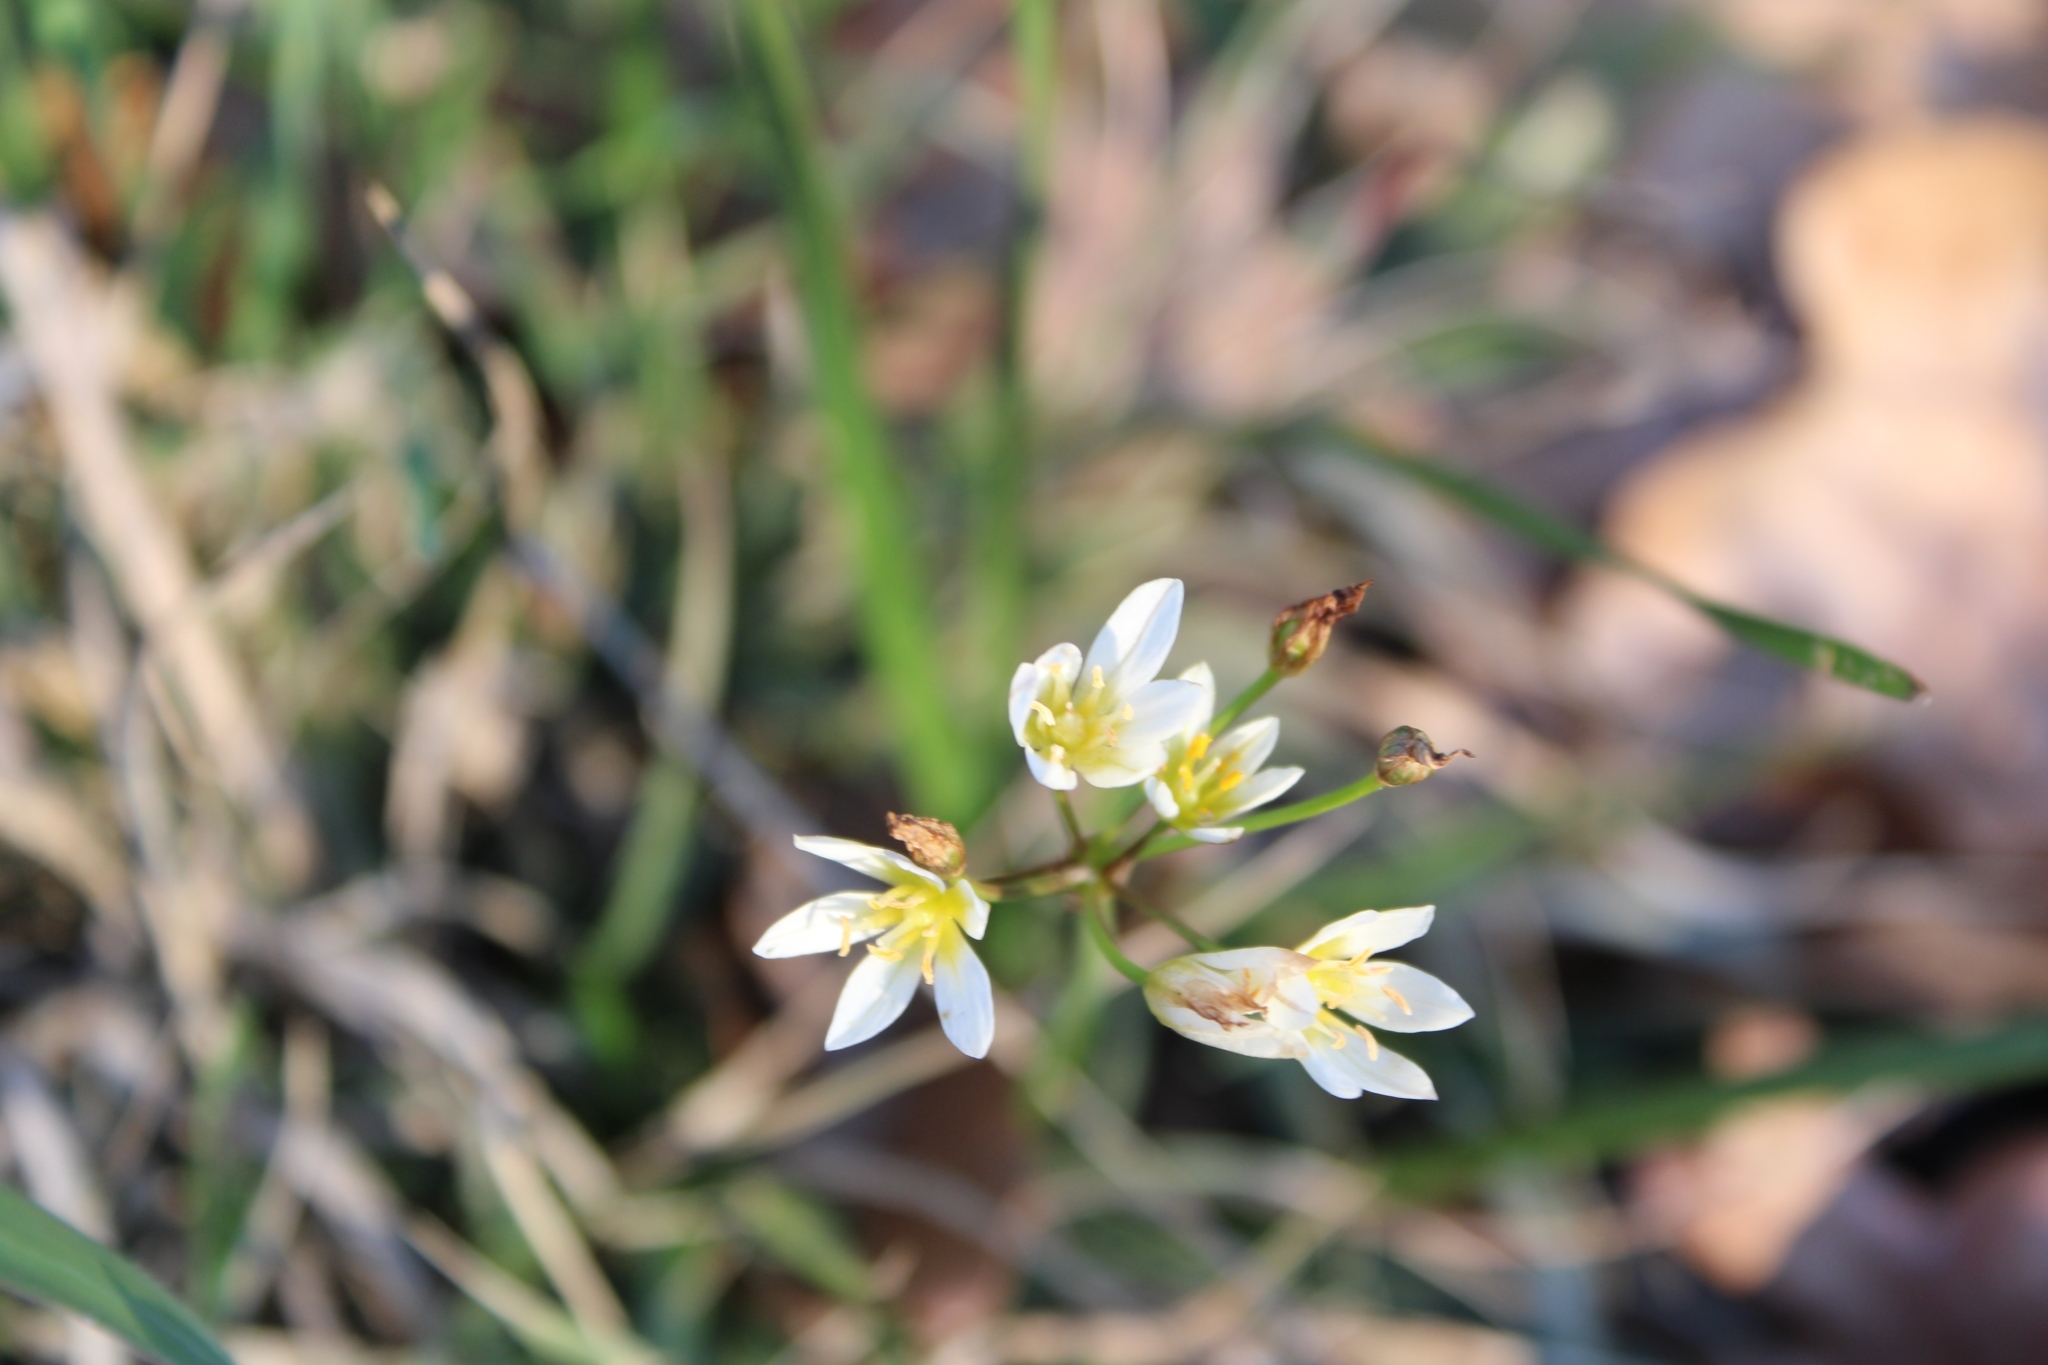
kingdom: Plantae
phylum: Tracheophyta
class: Liliopsida
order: Asparagales
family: Amaryllidaceae
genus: Nothoscordum
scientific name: Nothoscordum bivalve
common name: Crow-poison
